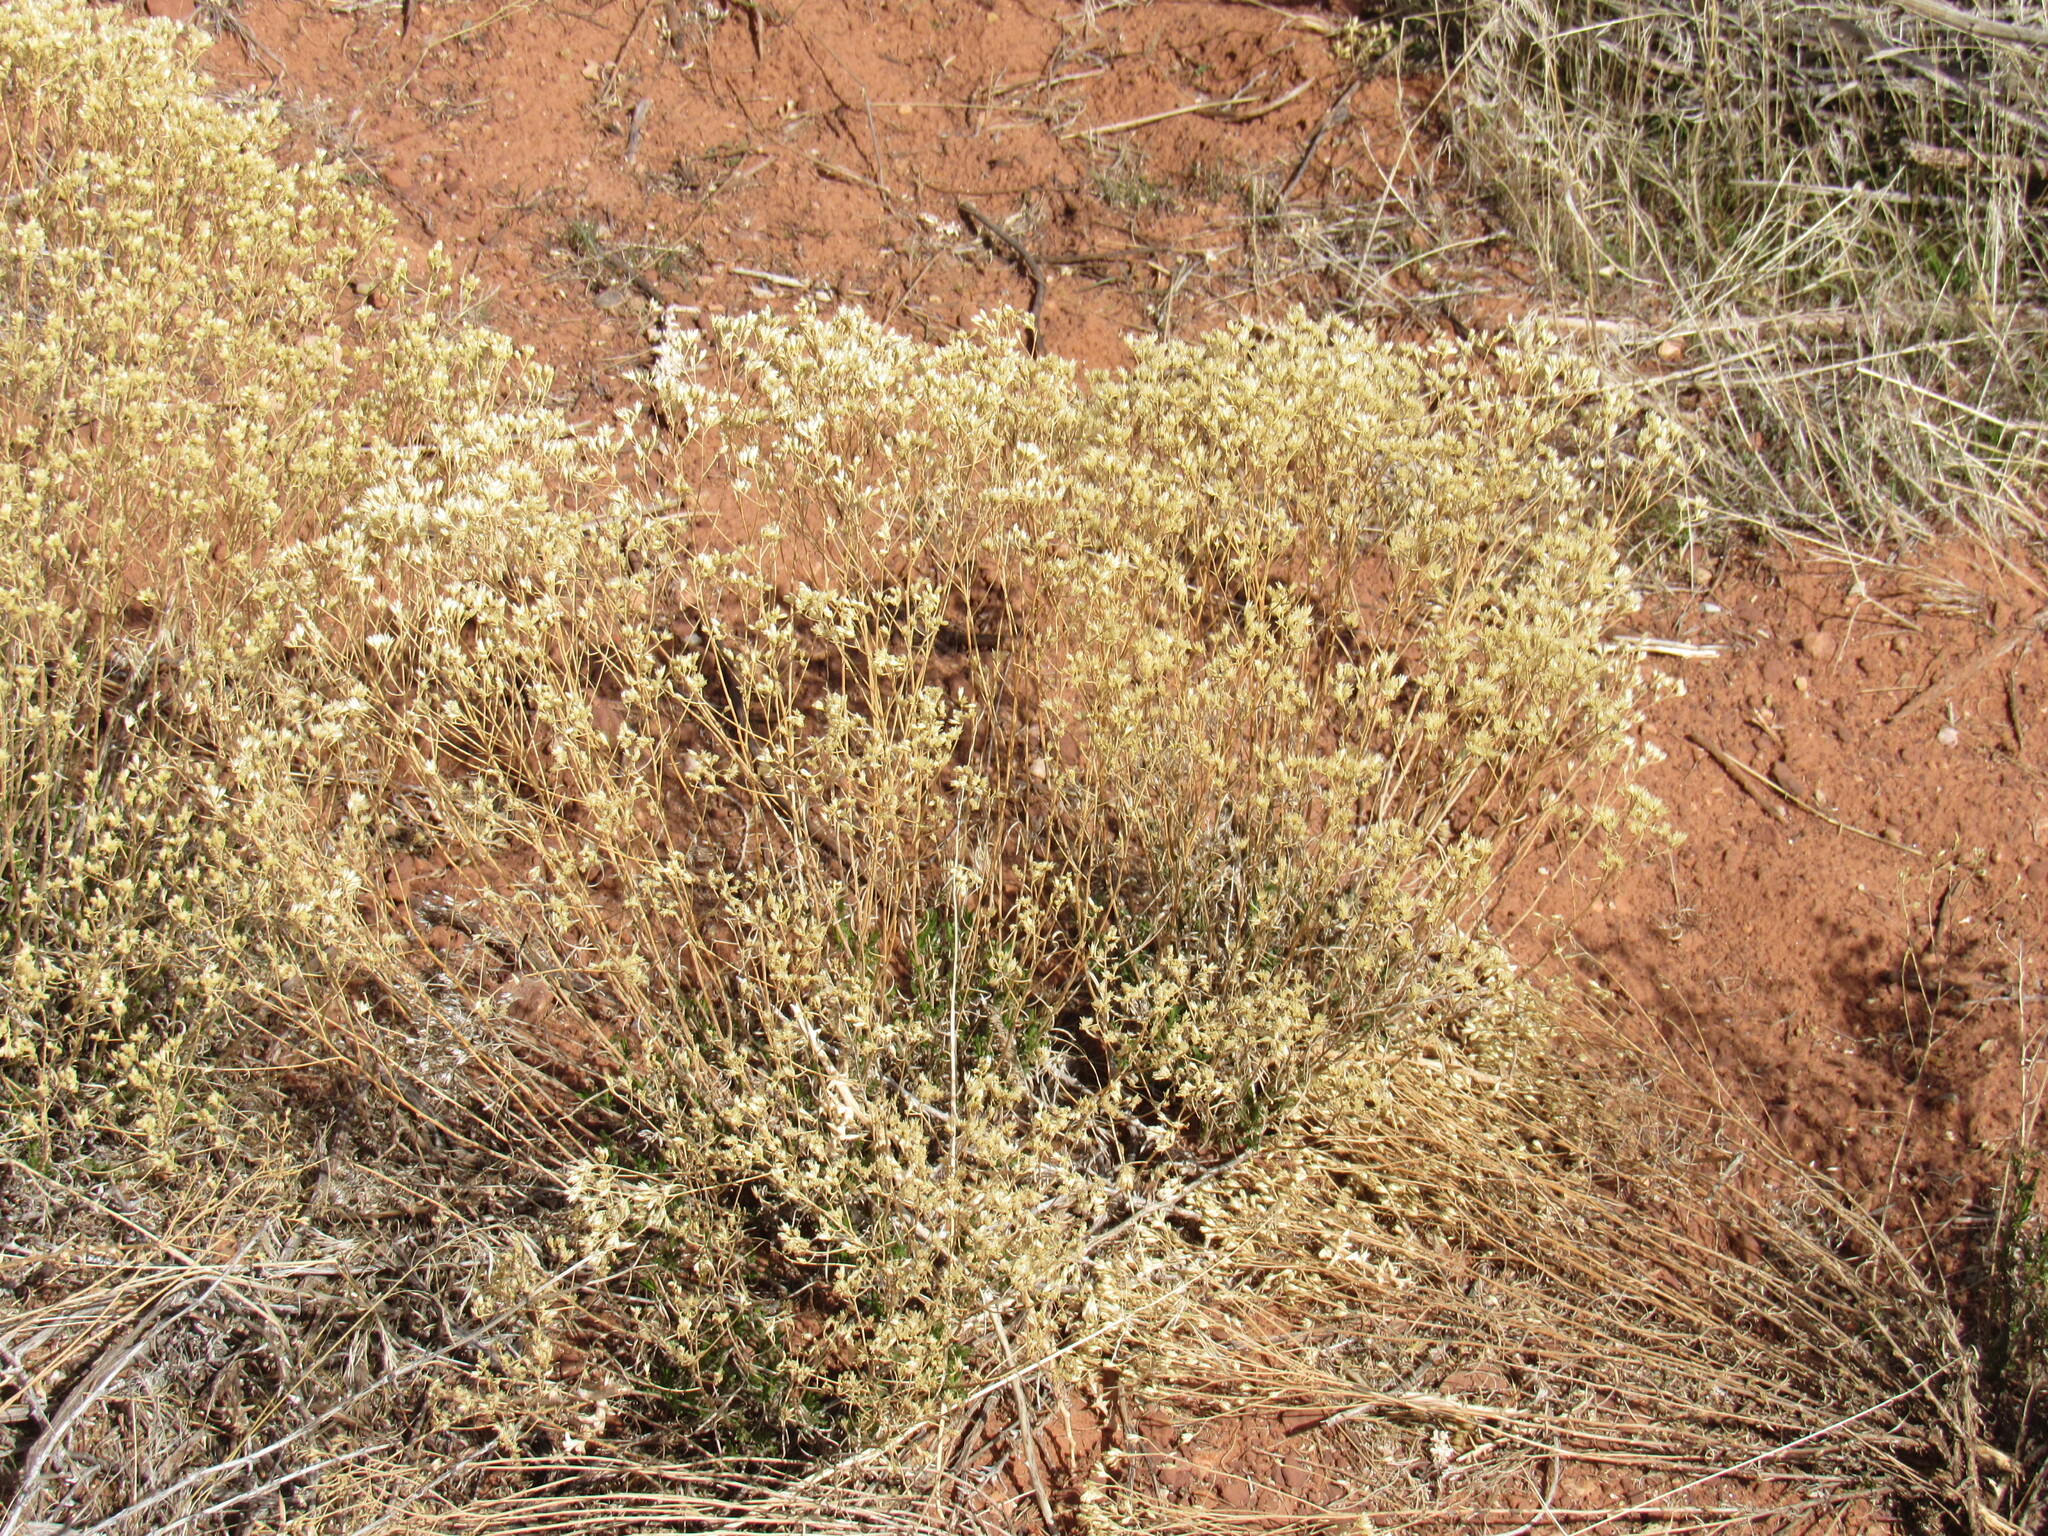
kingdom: Plantae
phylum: Tracheophyta
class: Magnoliopsida
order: Asterales
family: Asteraceae
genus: Gutierrezia
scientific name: Gutierrezia sarothrae
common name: Broom snakeweed
